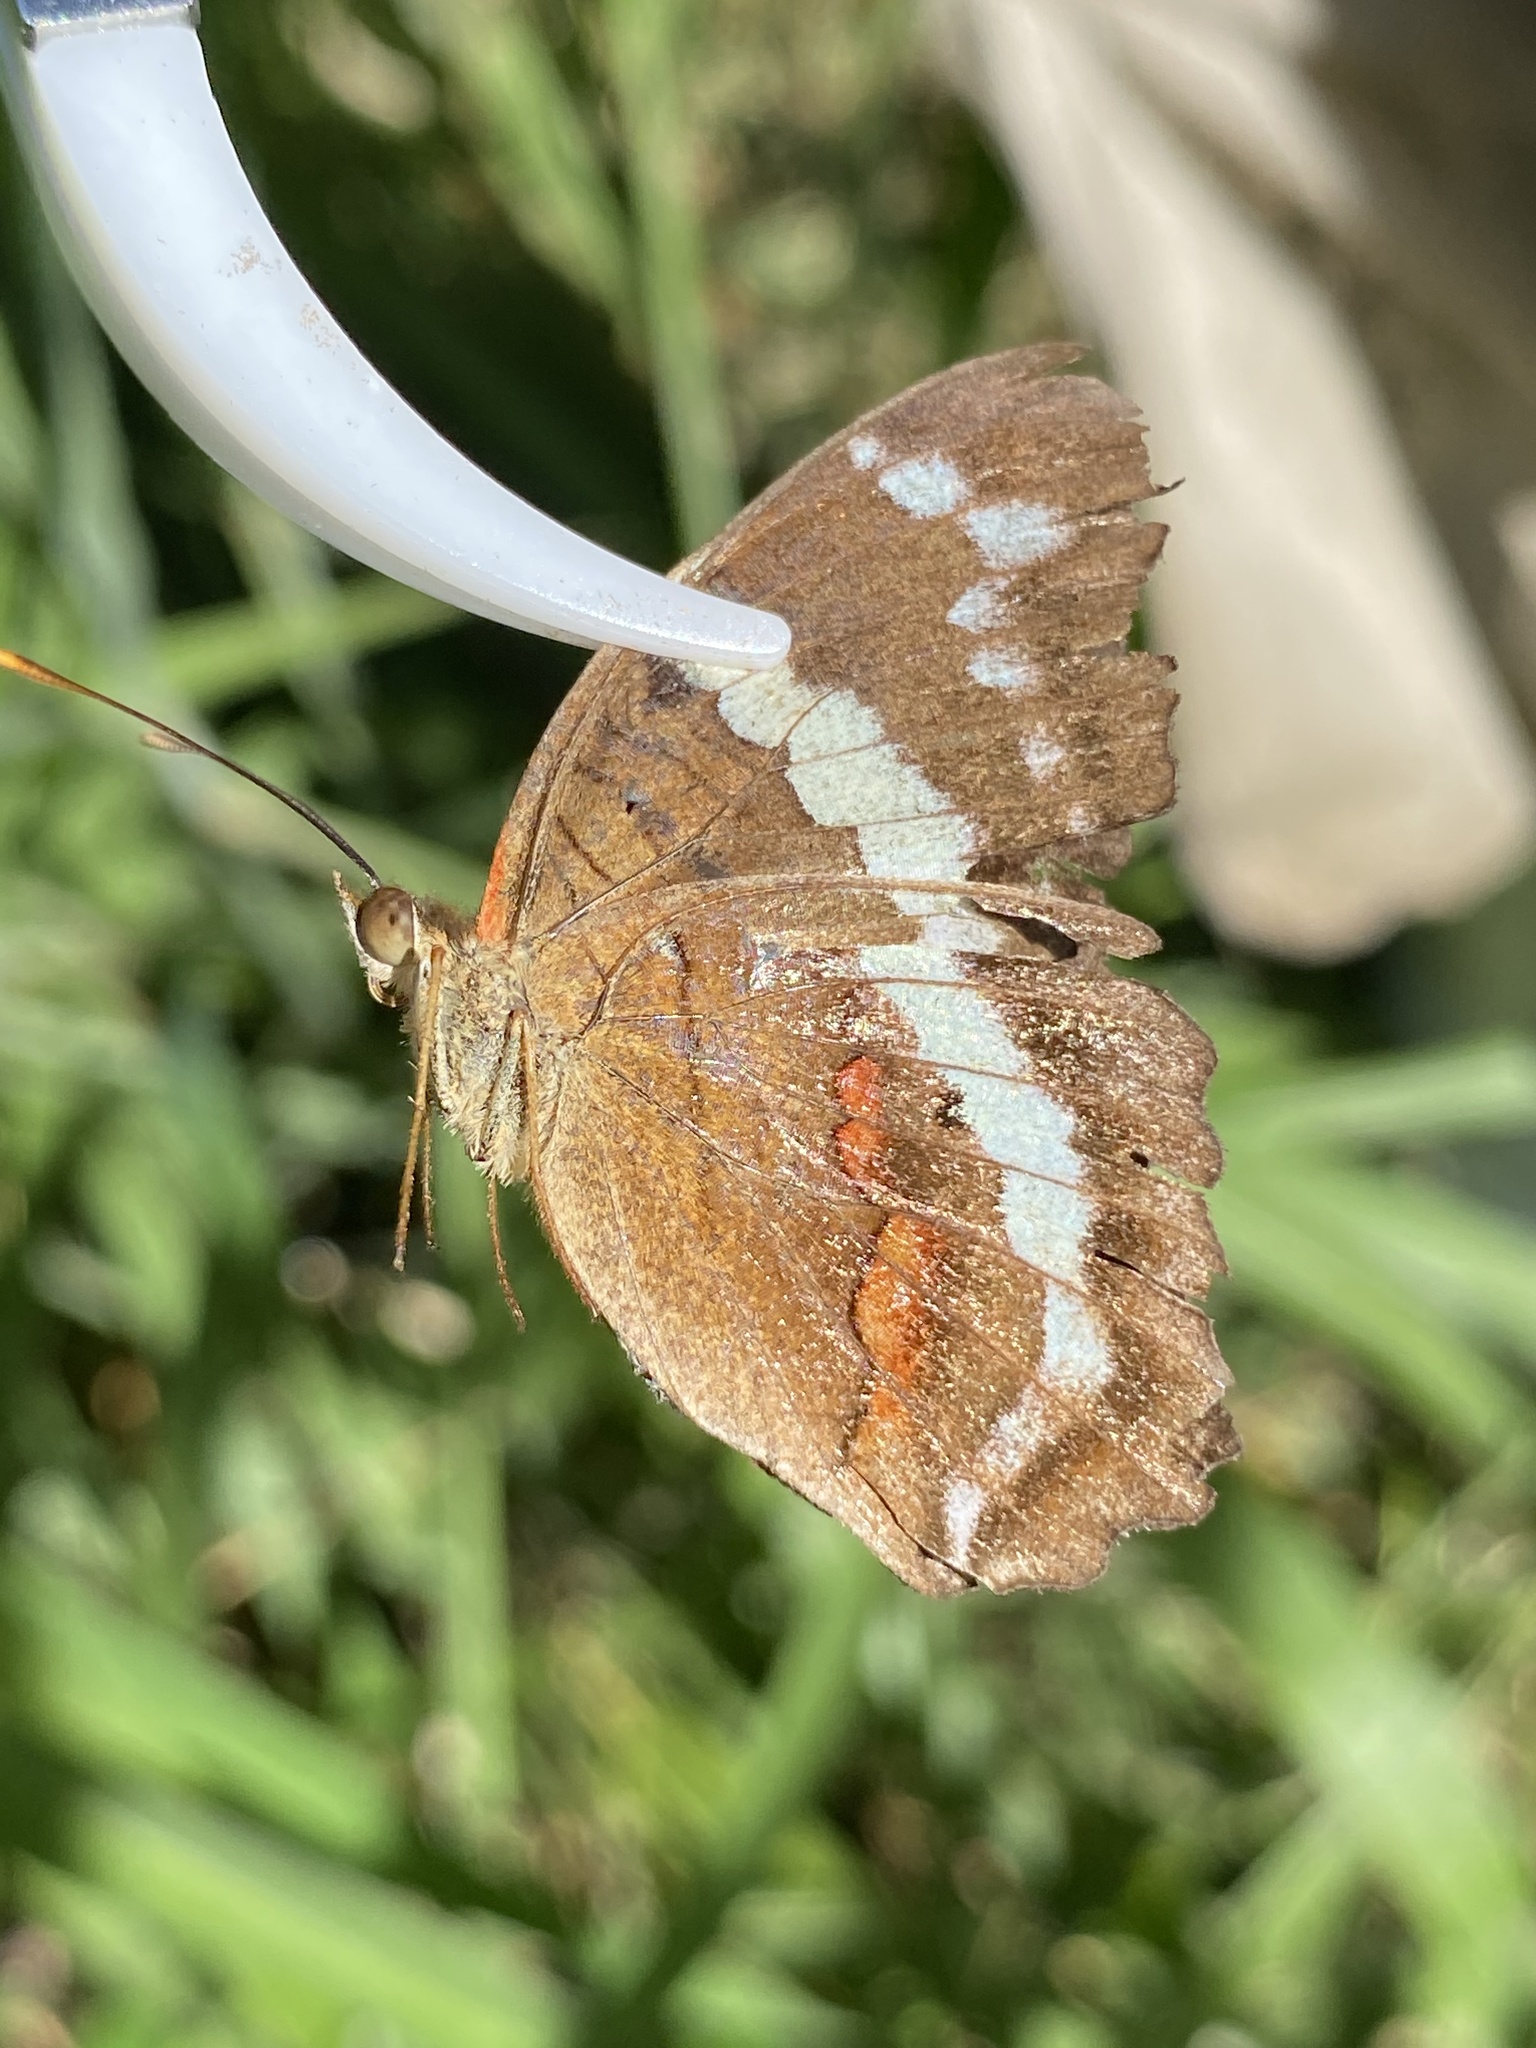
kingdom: Animalia
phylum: Arthropoda
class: Insecta
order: Lepidoptera
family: Nymphalidae
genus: Anartia
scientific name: Anartia fatima
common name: Banded peacock
